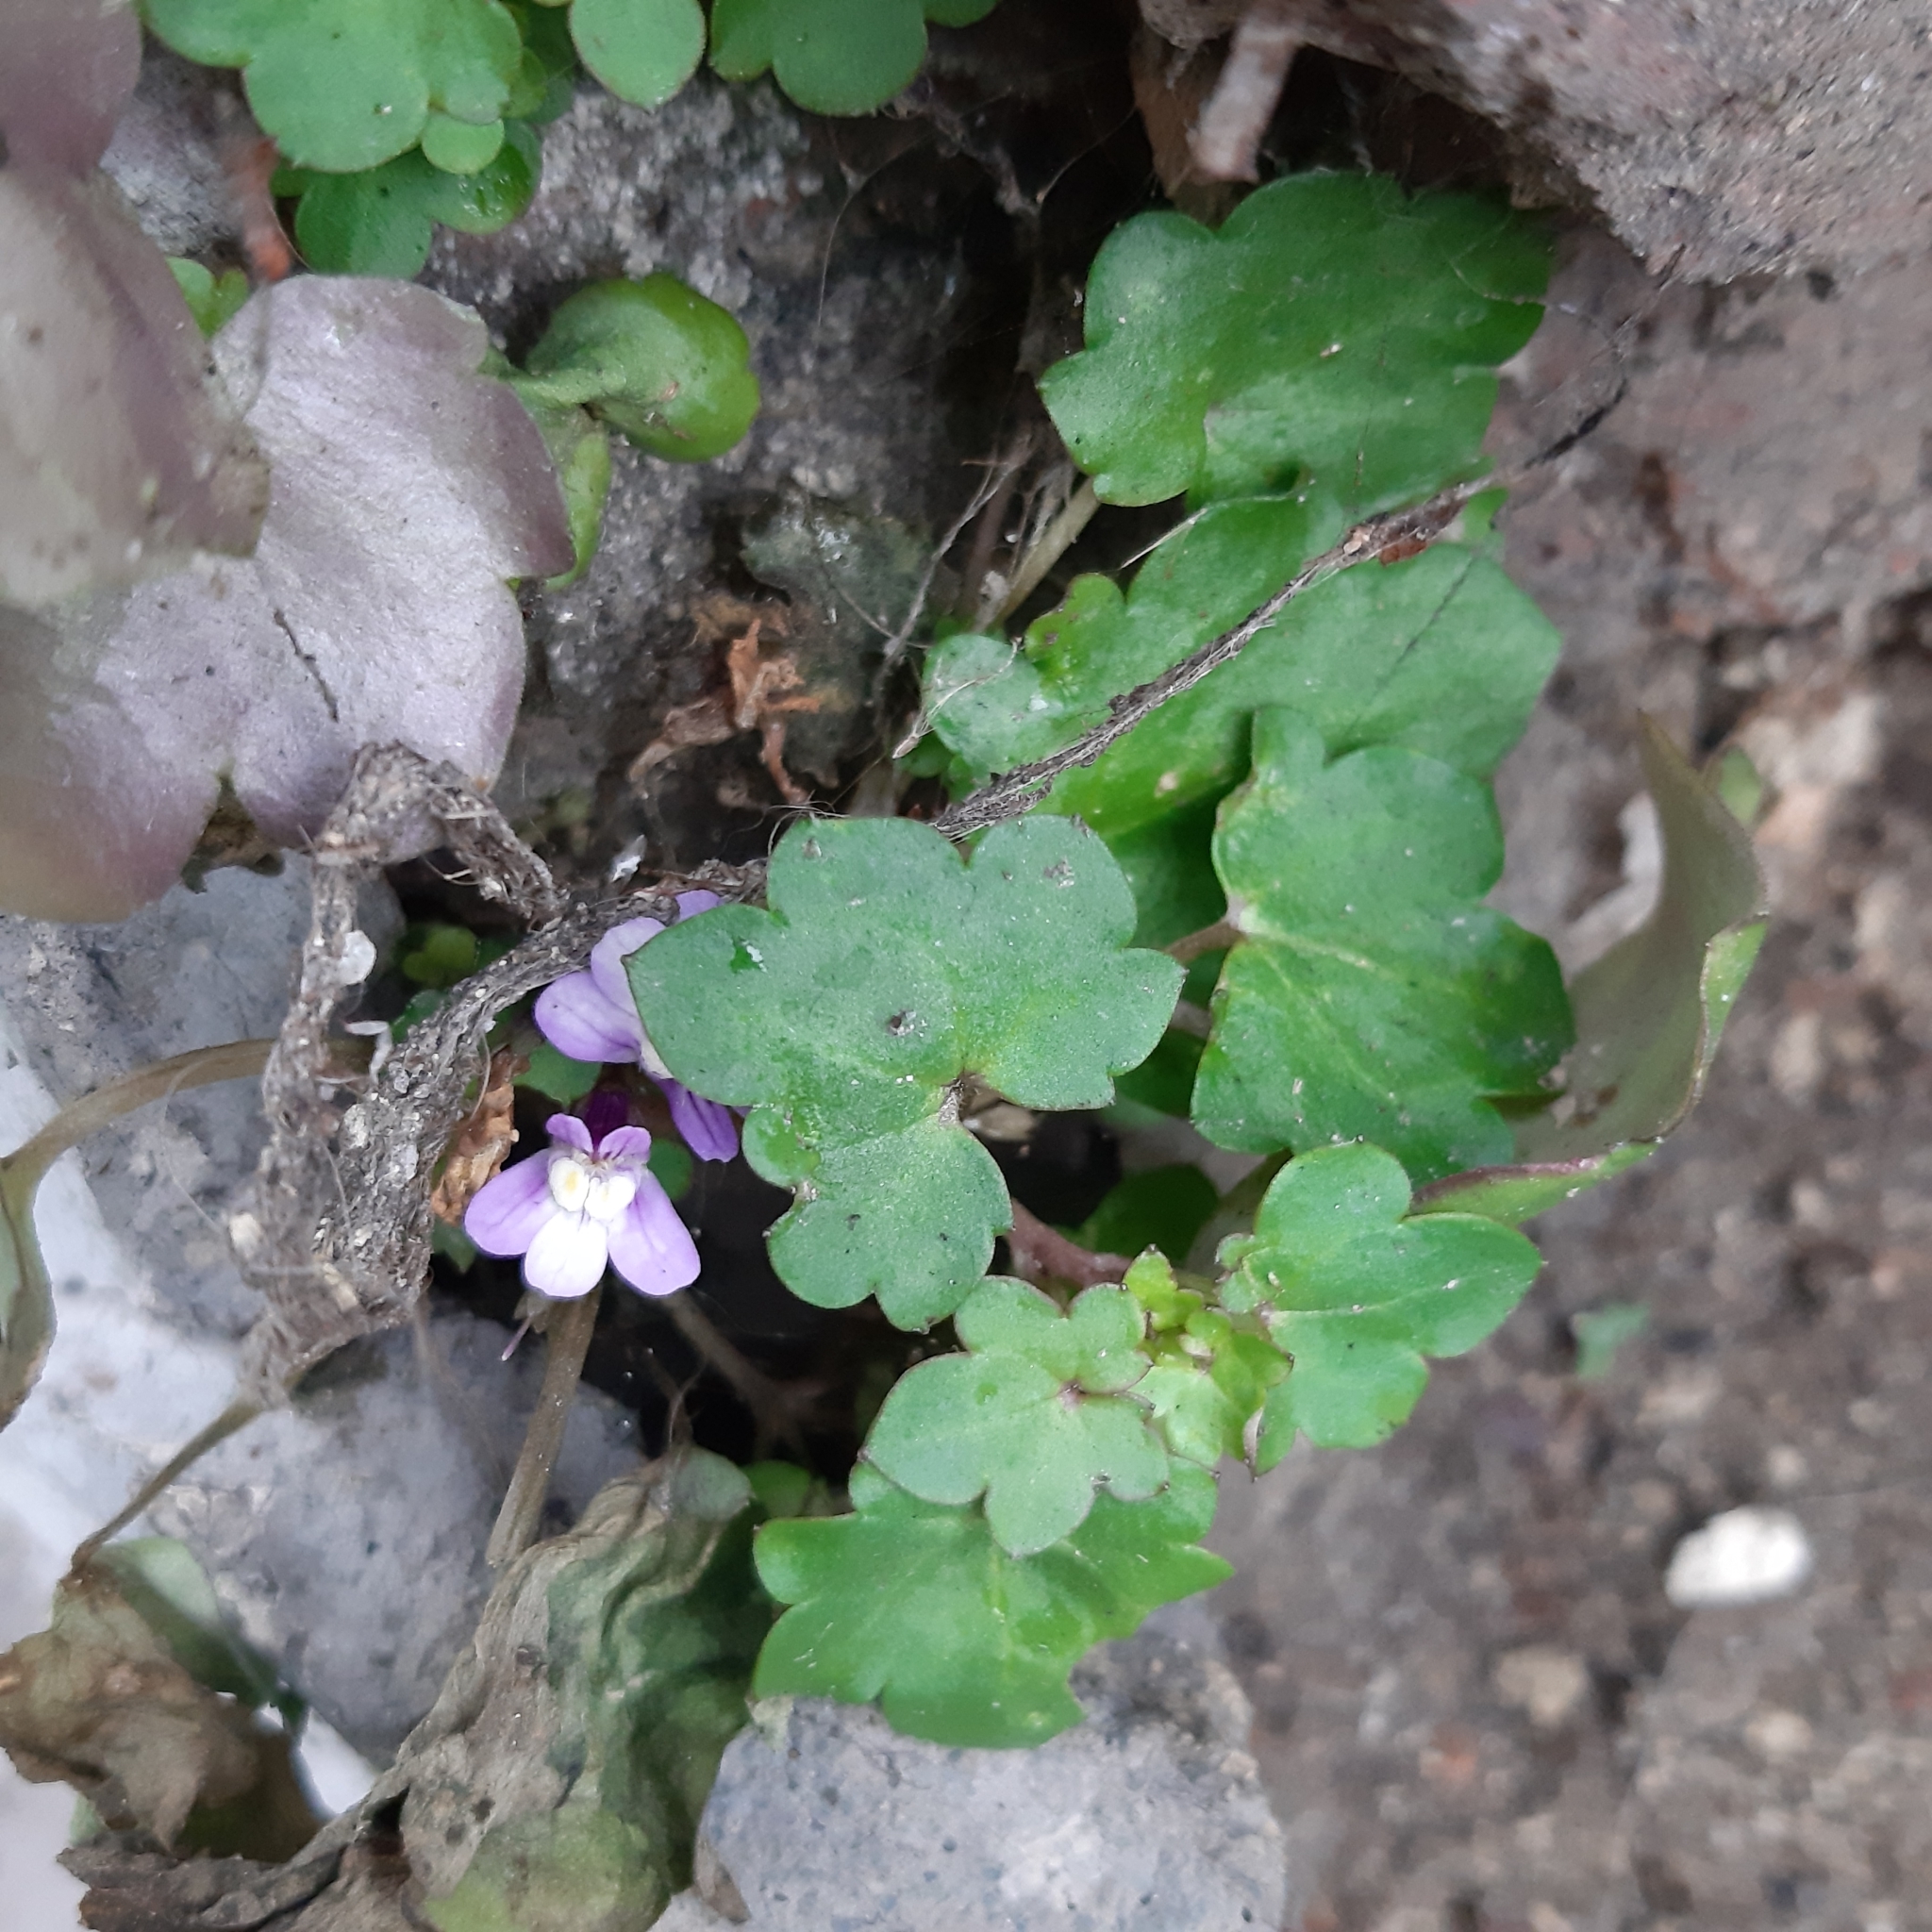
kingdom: Plantae
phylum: Tracheophyta
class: Magnoliopsida
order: Lamiales
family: Plantaginaceae
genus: Cymbalaria
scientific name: Cymbalaria muralis
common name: Ivy-leaved toadflax
